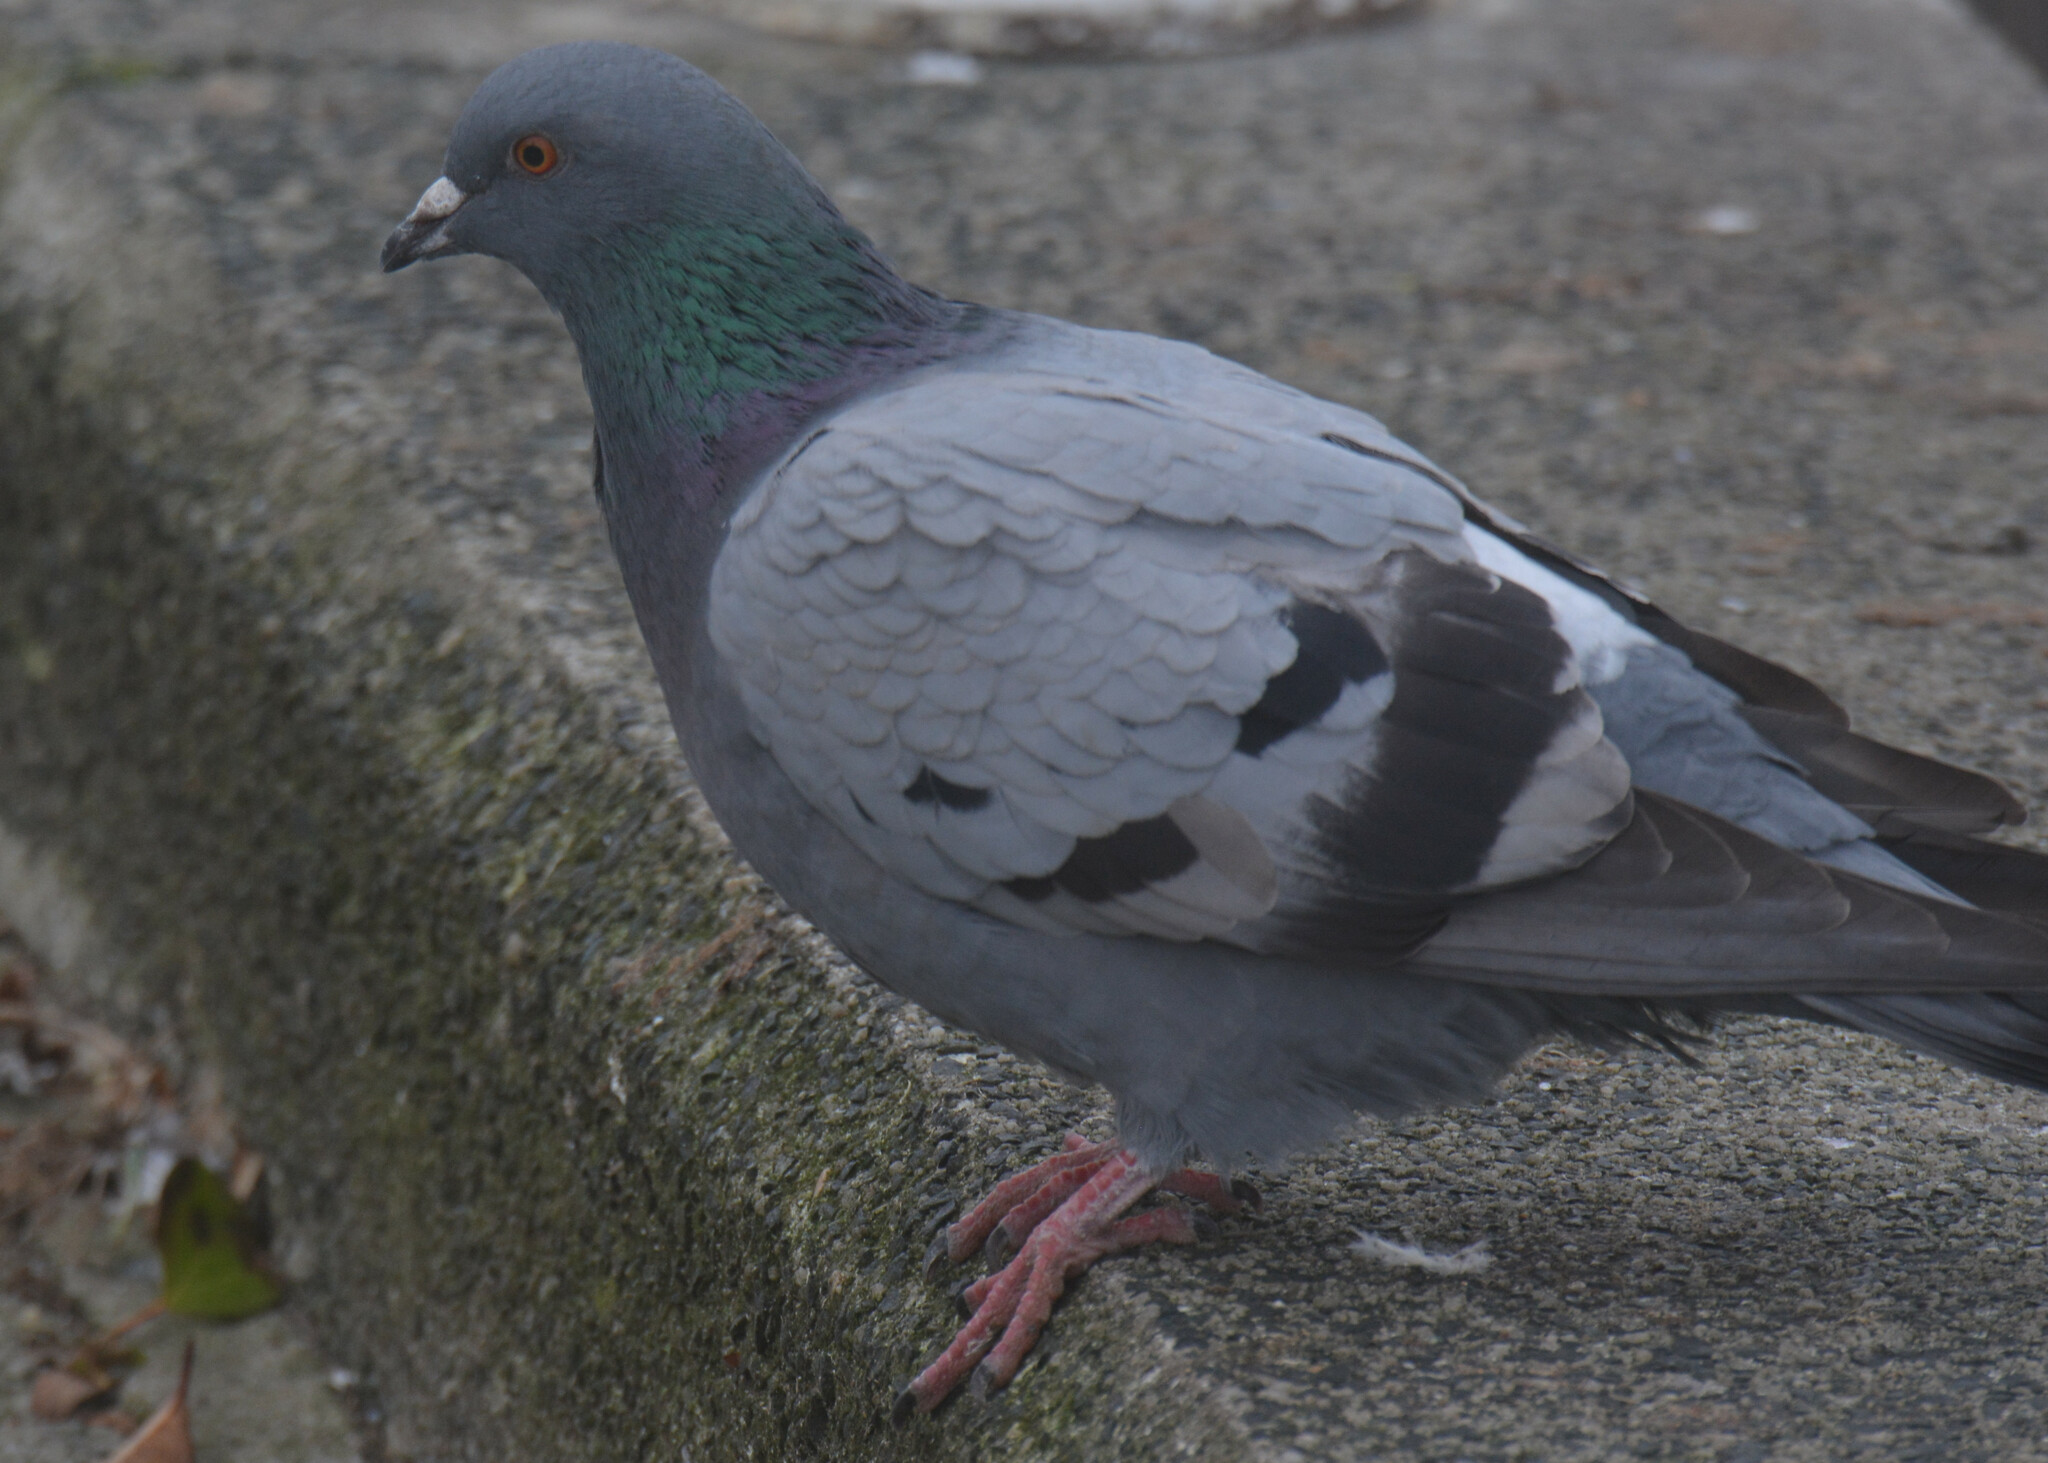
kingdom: Animalia
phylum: Chordata
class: Aves
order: Columbiformes
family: Columbidae
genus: Columba
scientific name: Columba livia
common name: Rock pigeon
